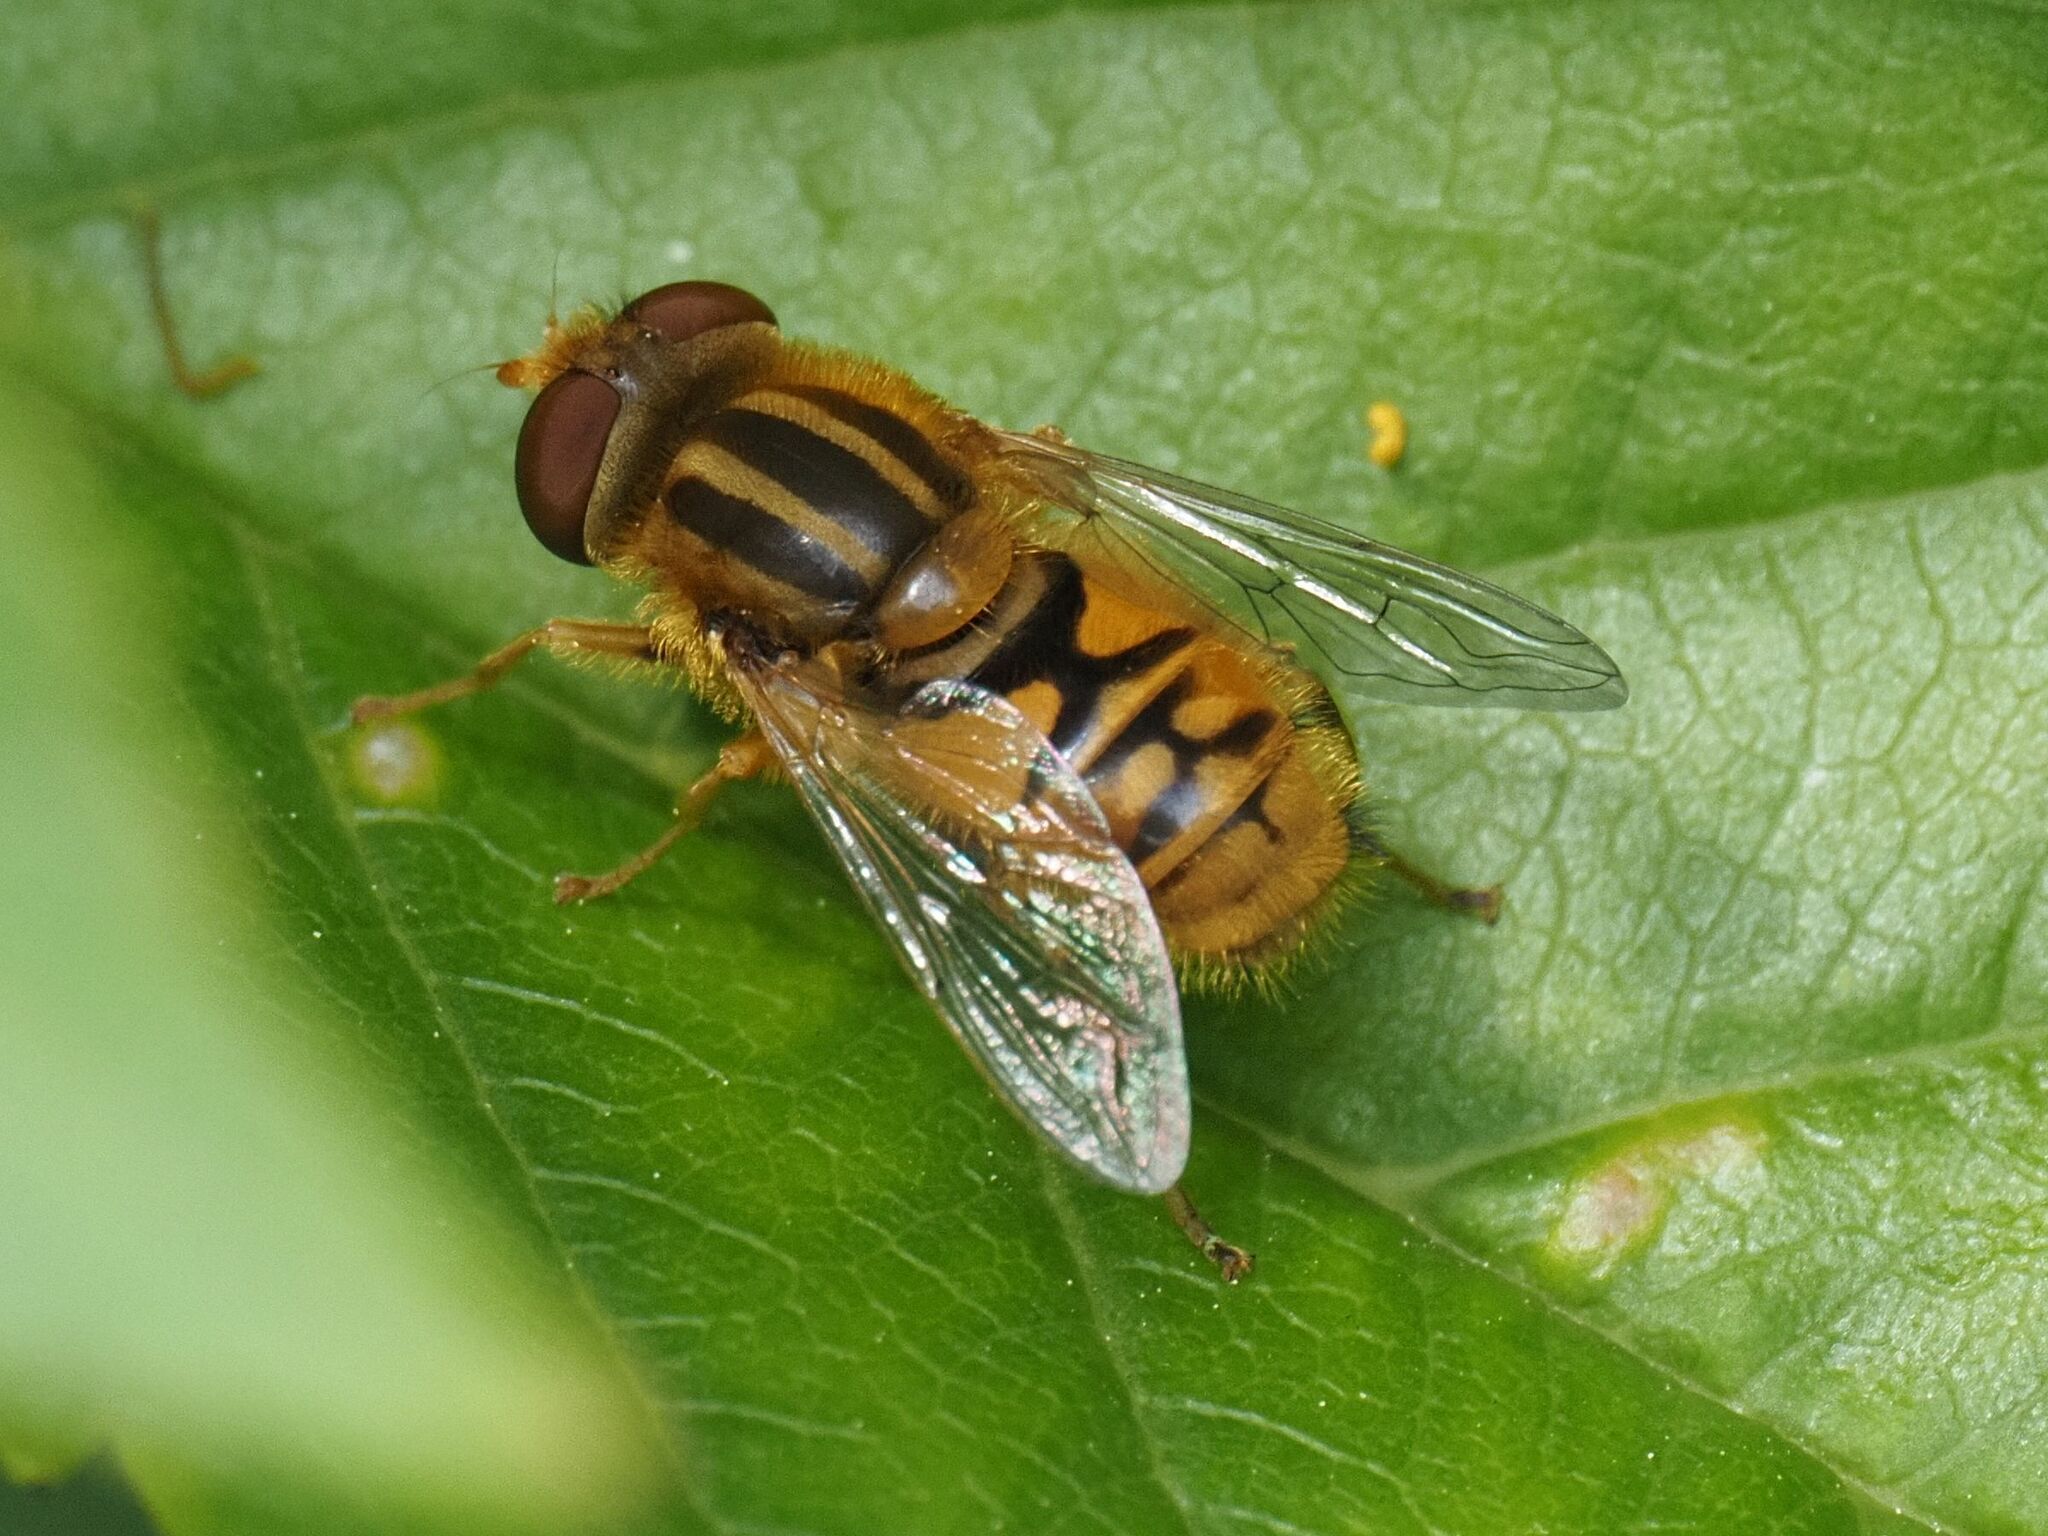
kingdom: Animalia
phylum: Arthropoda
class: Insecta
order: Diptera
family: Syrphidae
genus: Parhelophilus
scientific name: Parhelophilus frutetorum
